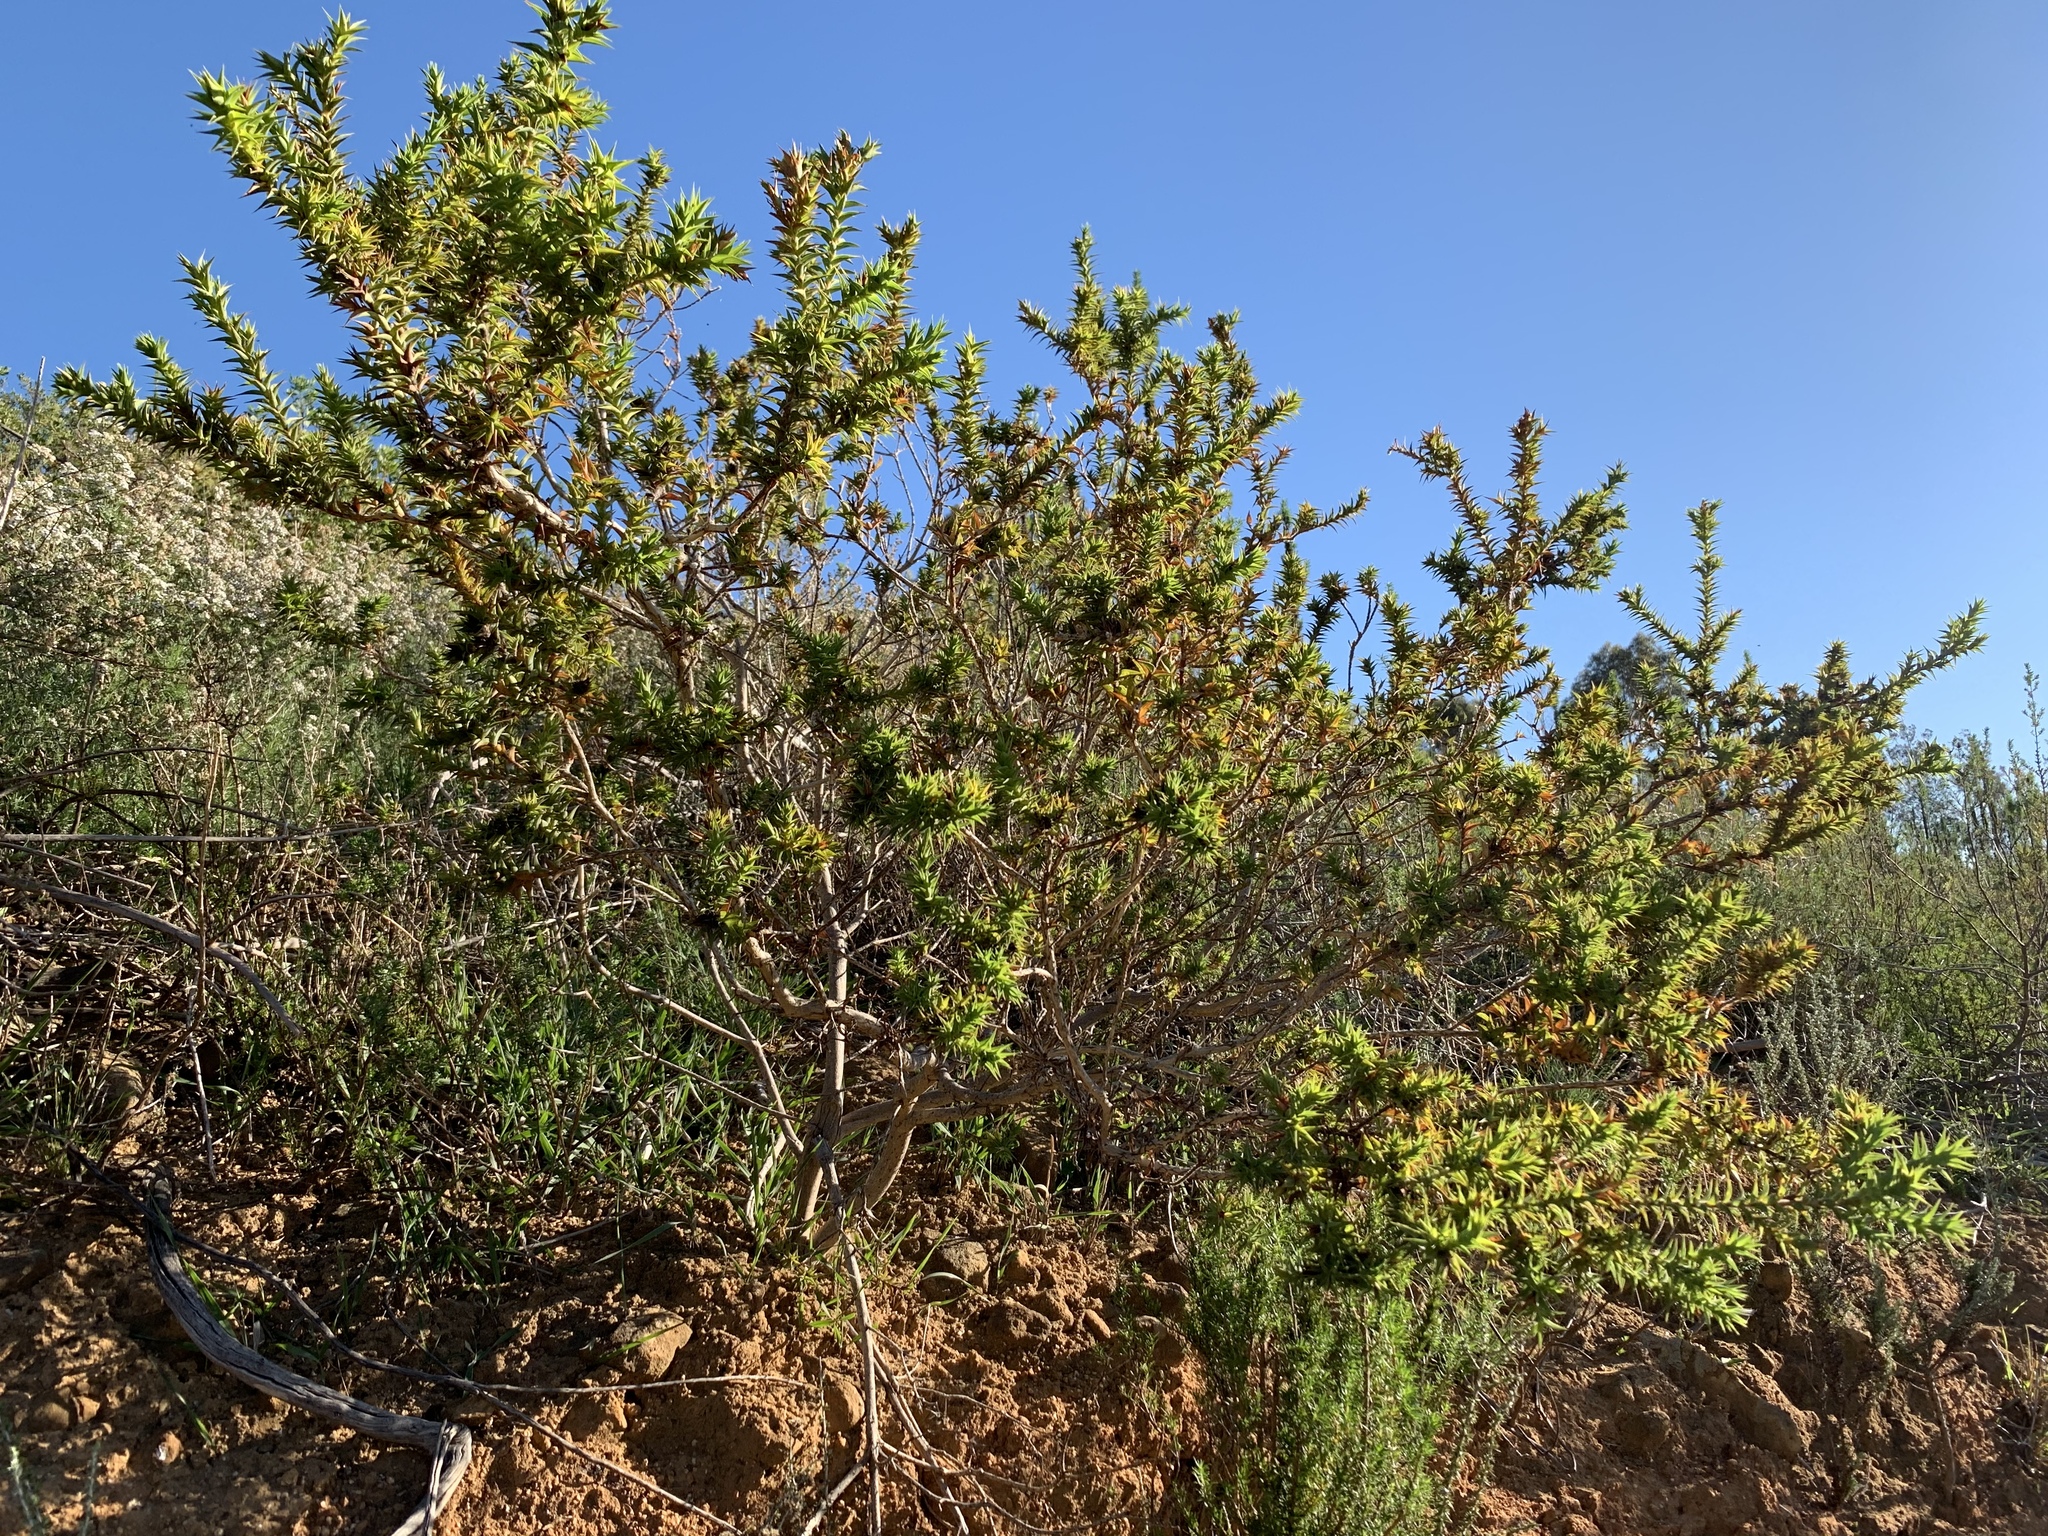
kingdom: Plantae
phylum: Tracheophyta
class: Magnoliopsida
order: Fabales
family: Fabaceae
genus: Aspalathus
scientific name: Aspalathus cordata
